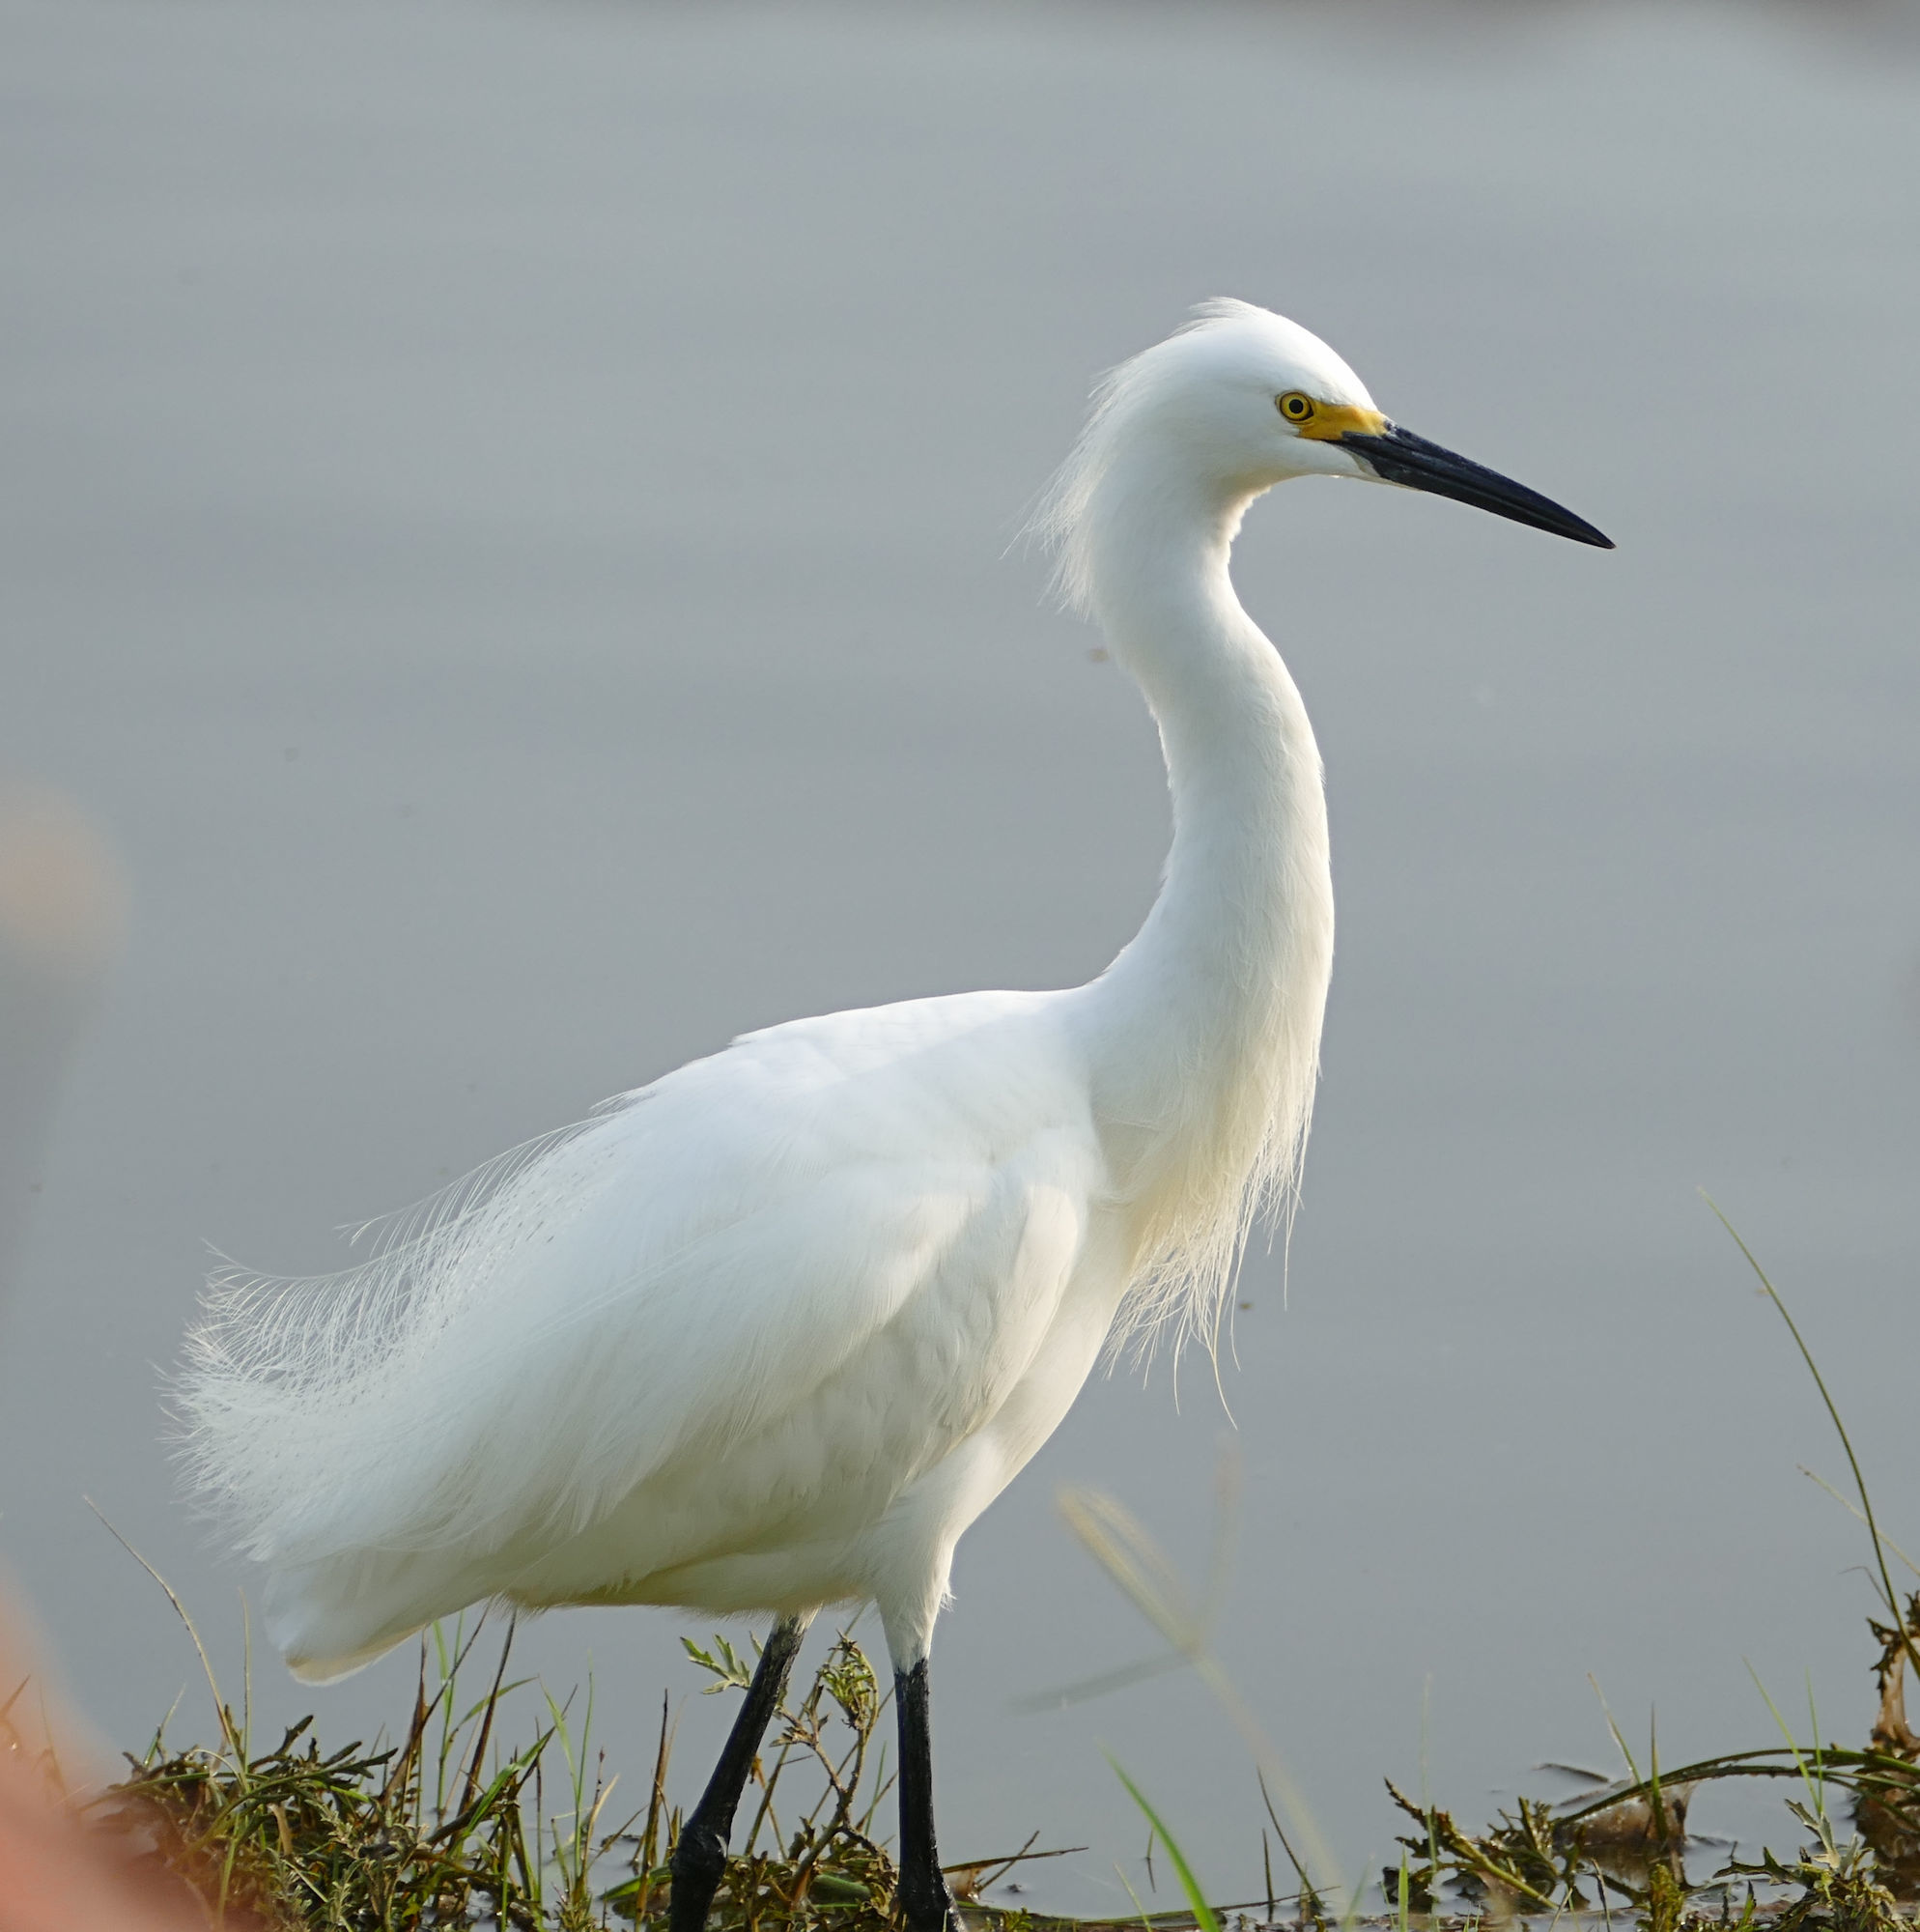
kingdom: Animalia
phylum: Chordata
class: Aves
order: Pelecaniformes
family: Ardeidae
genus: Egretta
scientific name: Egretta thula
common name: Snowy egret
